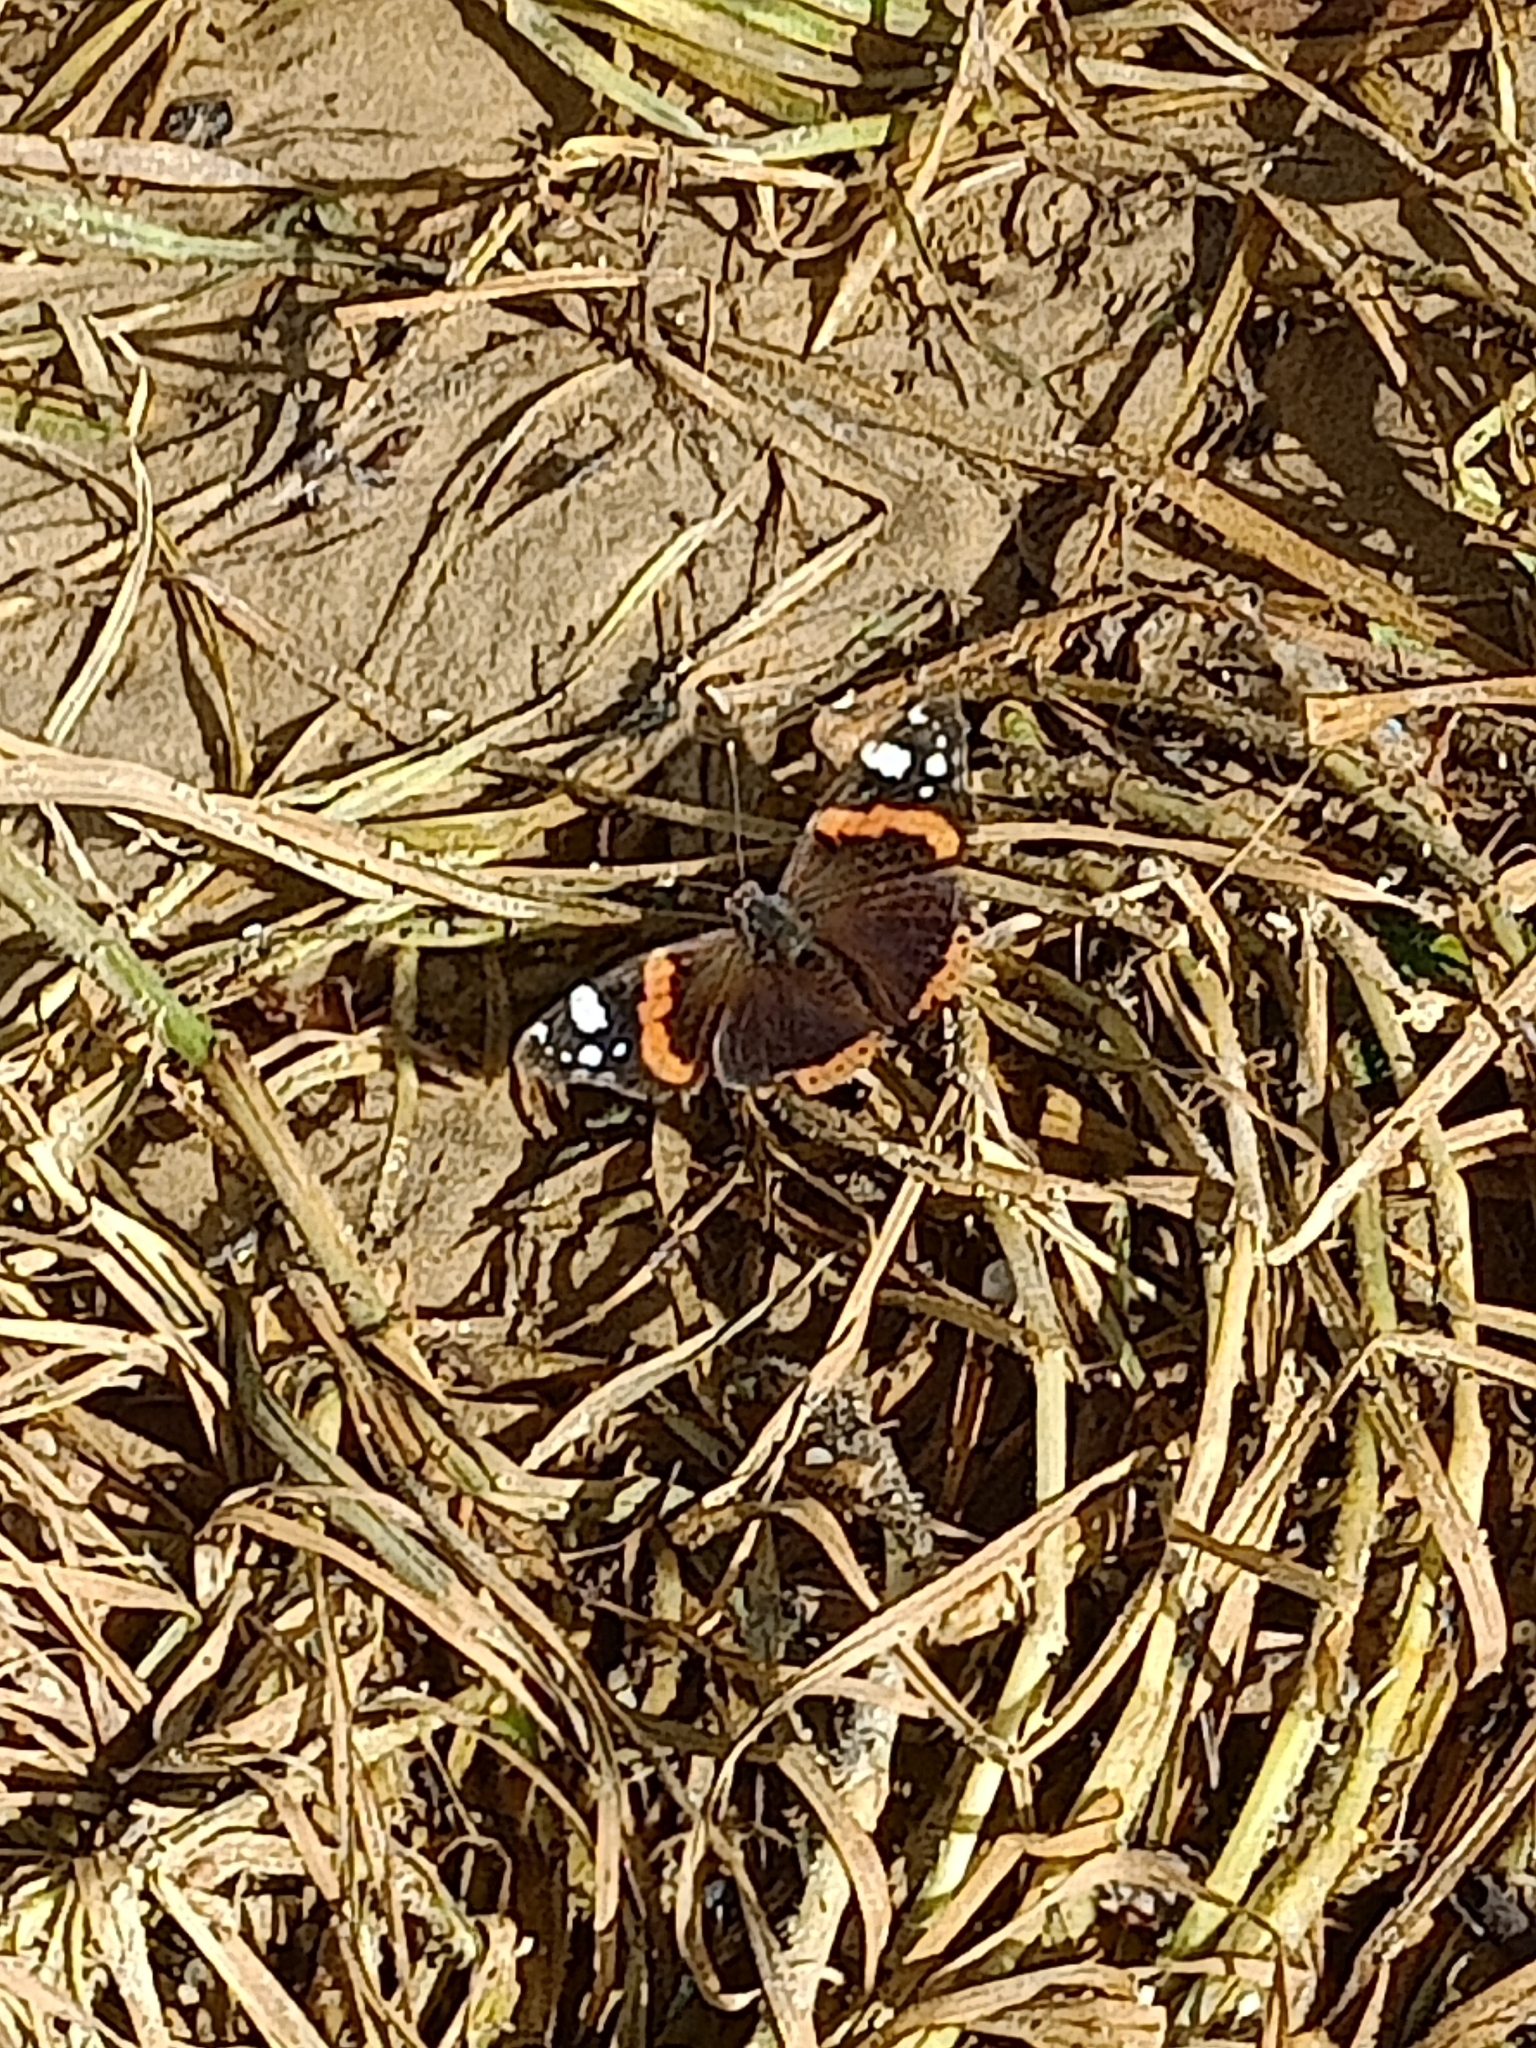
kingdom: Animalia
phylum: Arthropoda
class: Insecta
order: Lepidoptera
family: Nymphalidae
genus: Vanessa
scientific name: Vanessa atalanta
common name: Red admiral
